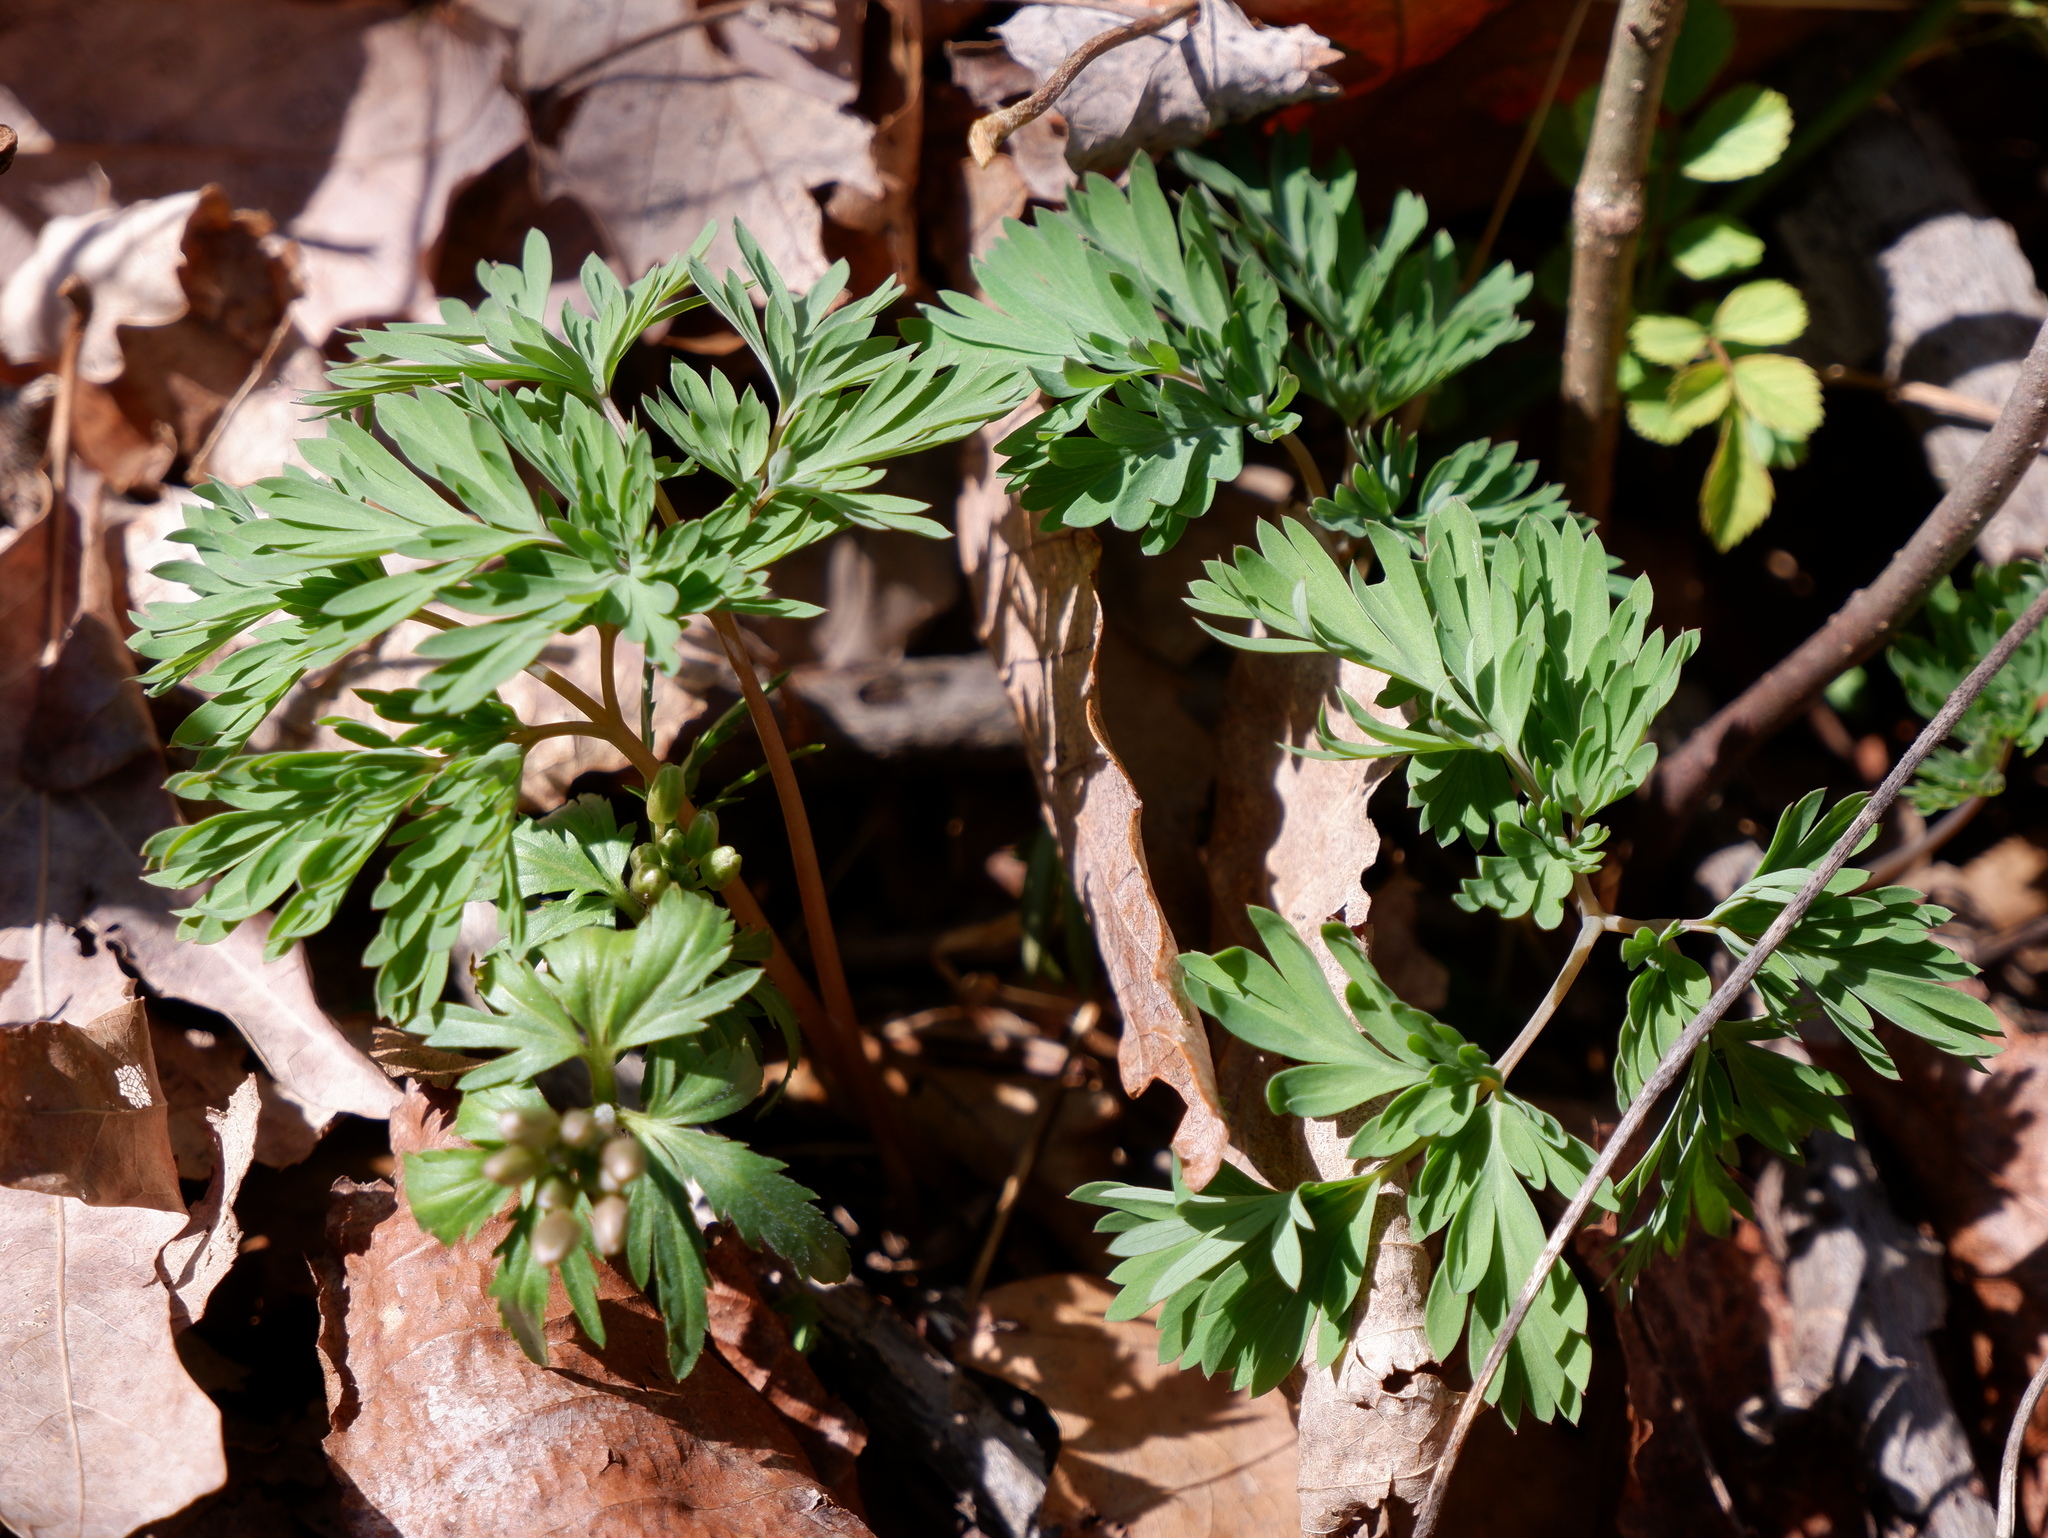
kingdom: Plantae
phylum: Tracheophyta
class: Magnoliopsida
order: Ranunculales
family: Papaveraceae
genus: Dicentra
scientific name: Dicentra
